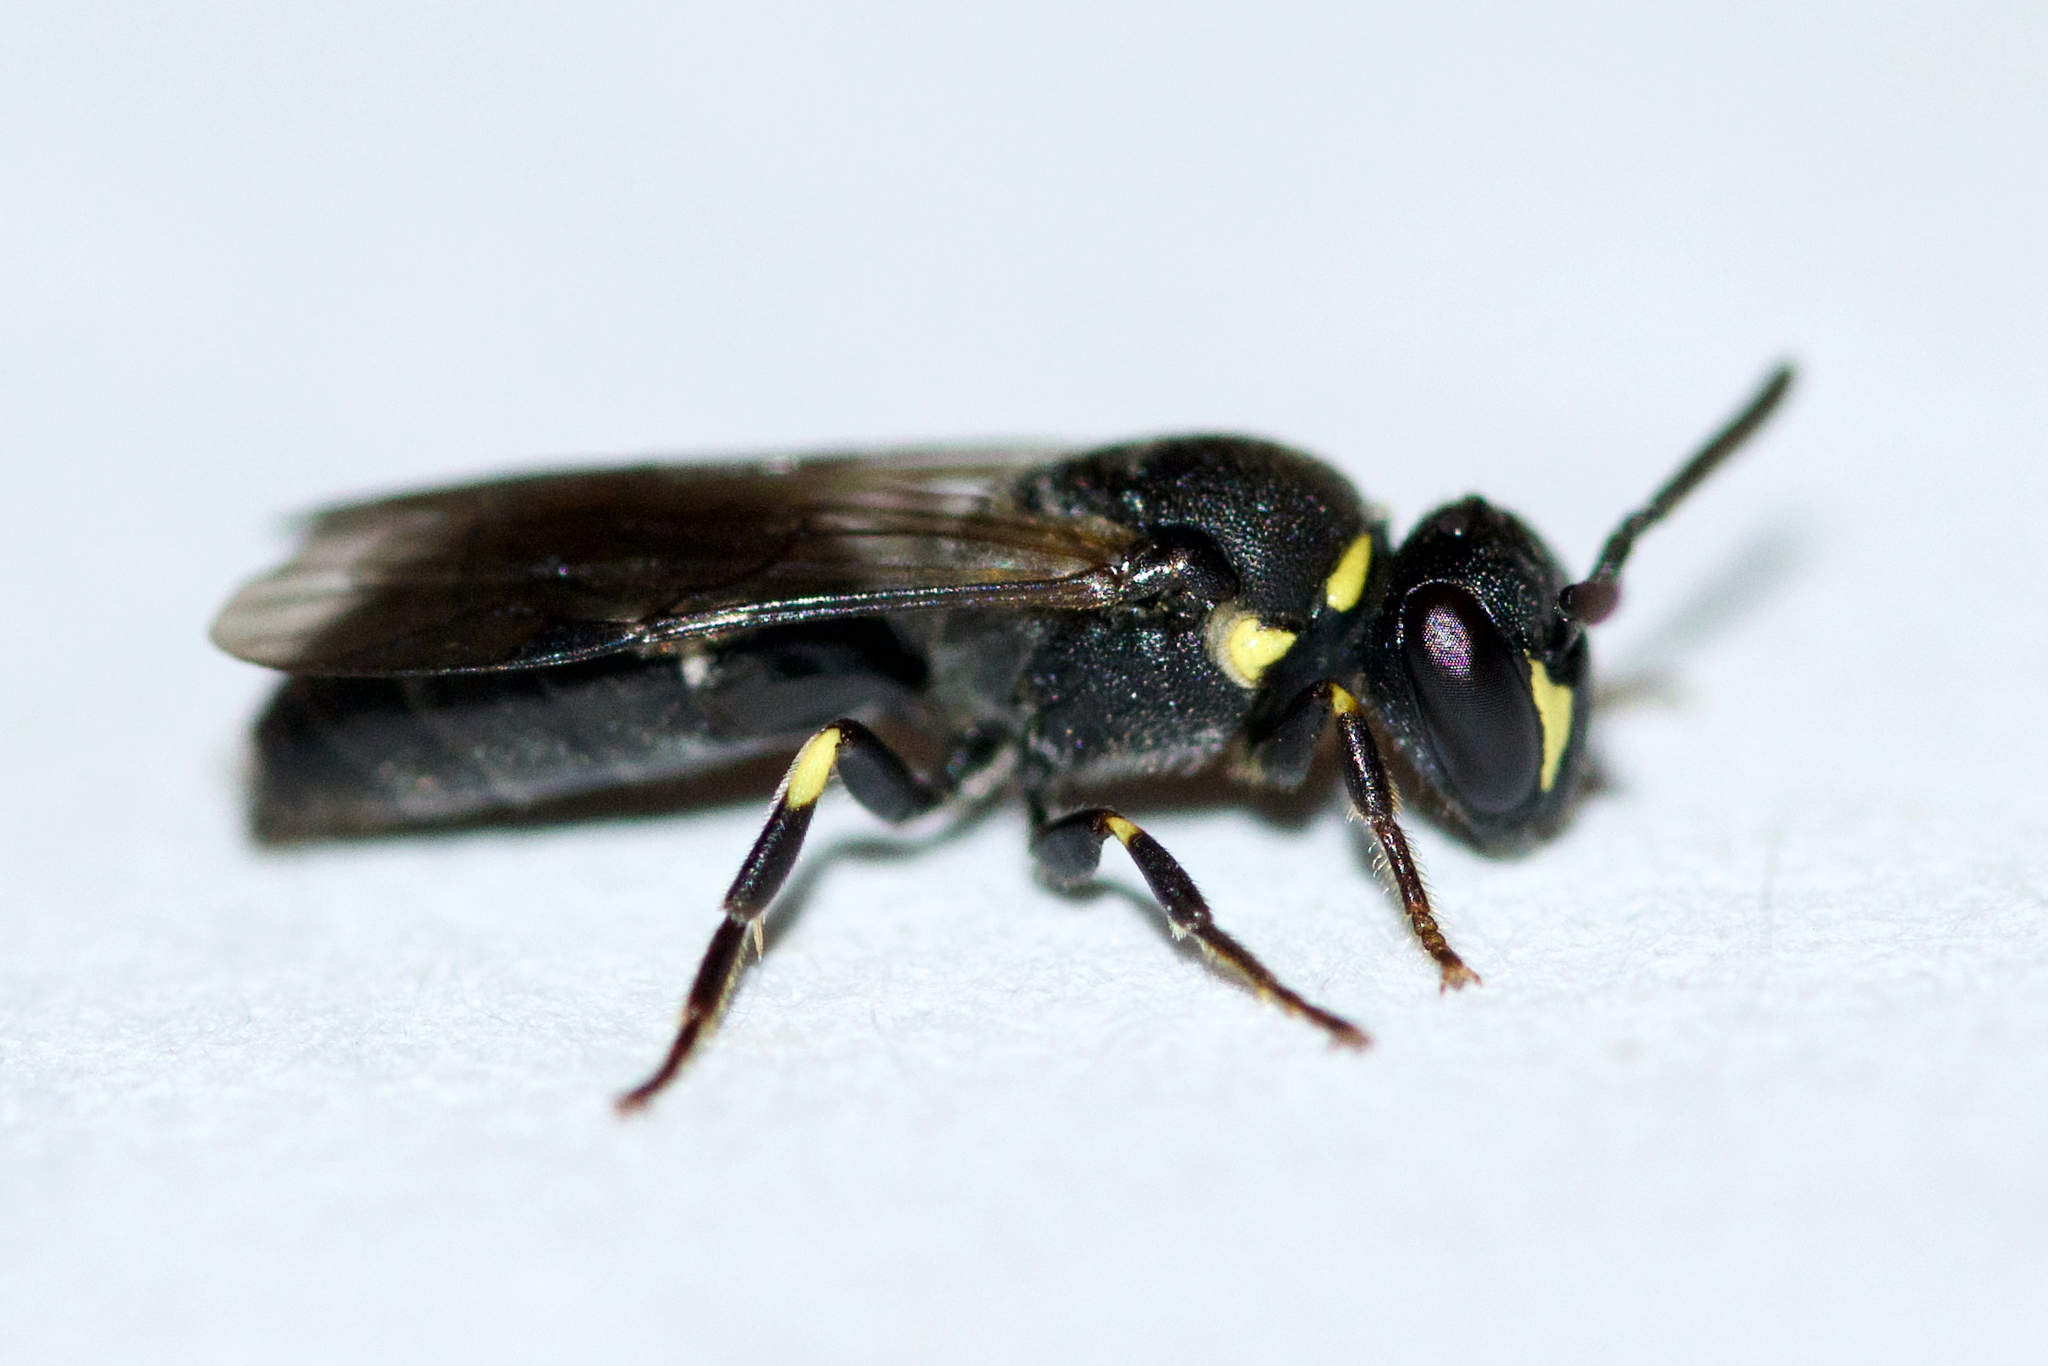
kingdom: Animalia
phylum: Arthropoda
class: Insecta
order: Hymenoptera
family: Colletidae
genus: Hylaeus
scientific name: Hylaeus modestus
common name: Yellow-faced bee
